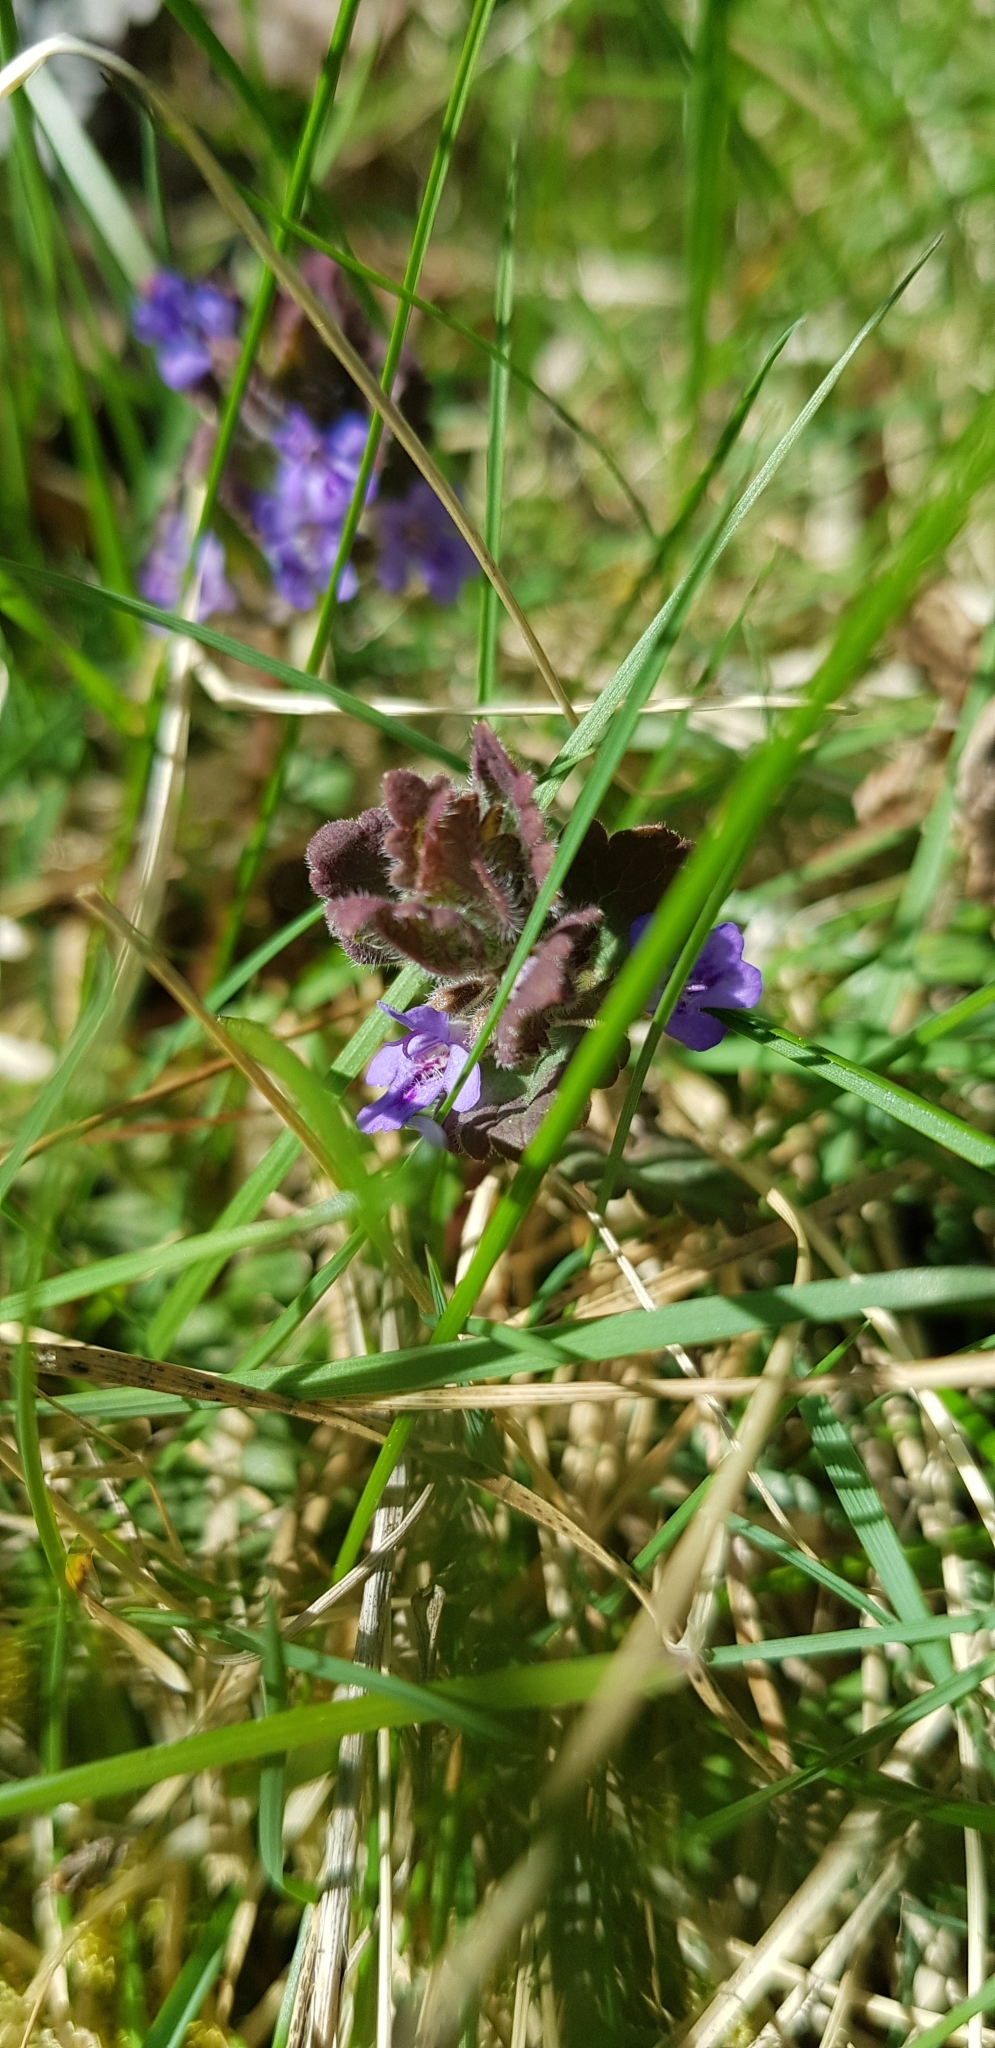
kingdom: Plantae
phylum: Tracheophyta
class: Magnoliopsida
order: Lamiales
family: Lamiaceae
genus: Glechoma
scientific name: Glechoma hederacea
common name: Ground ivy
